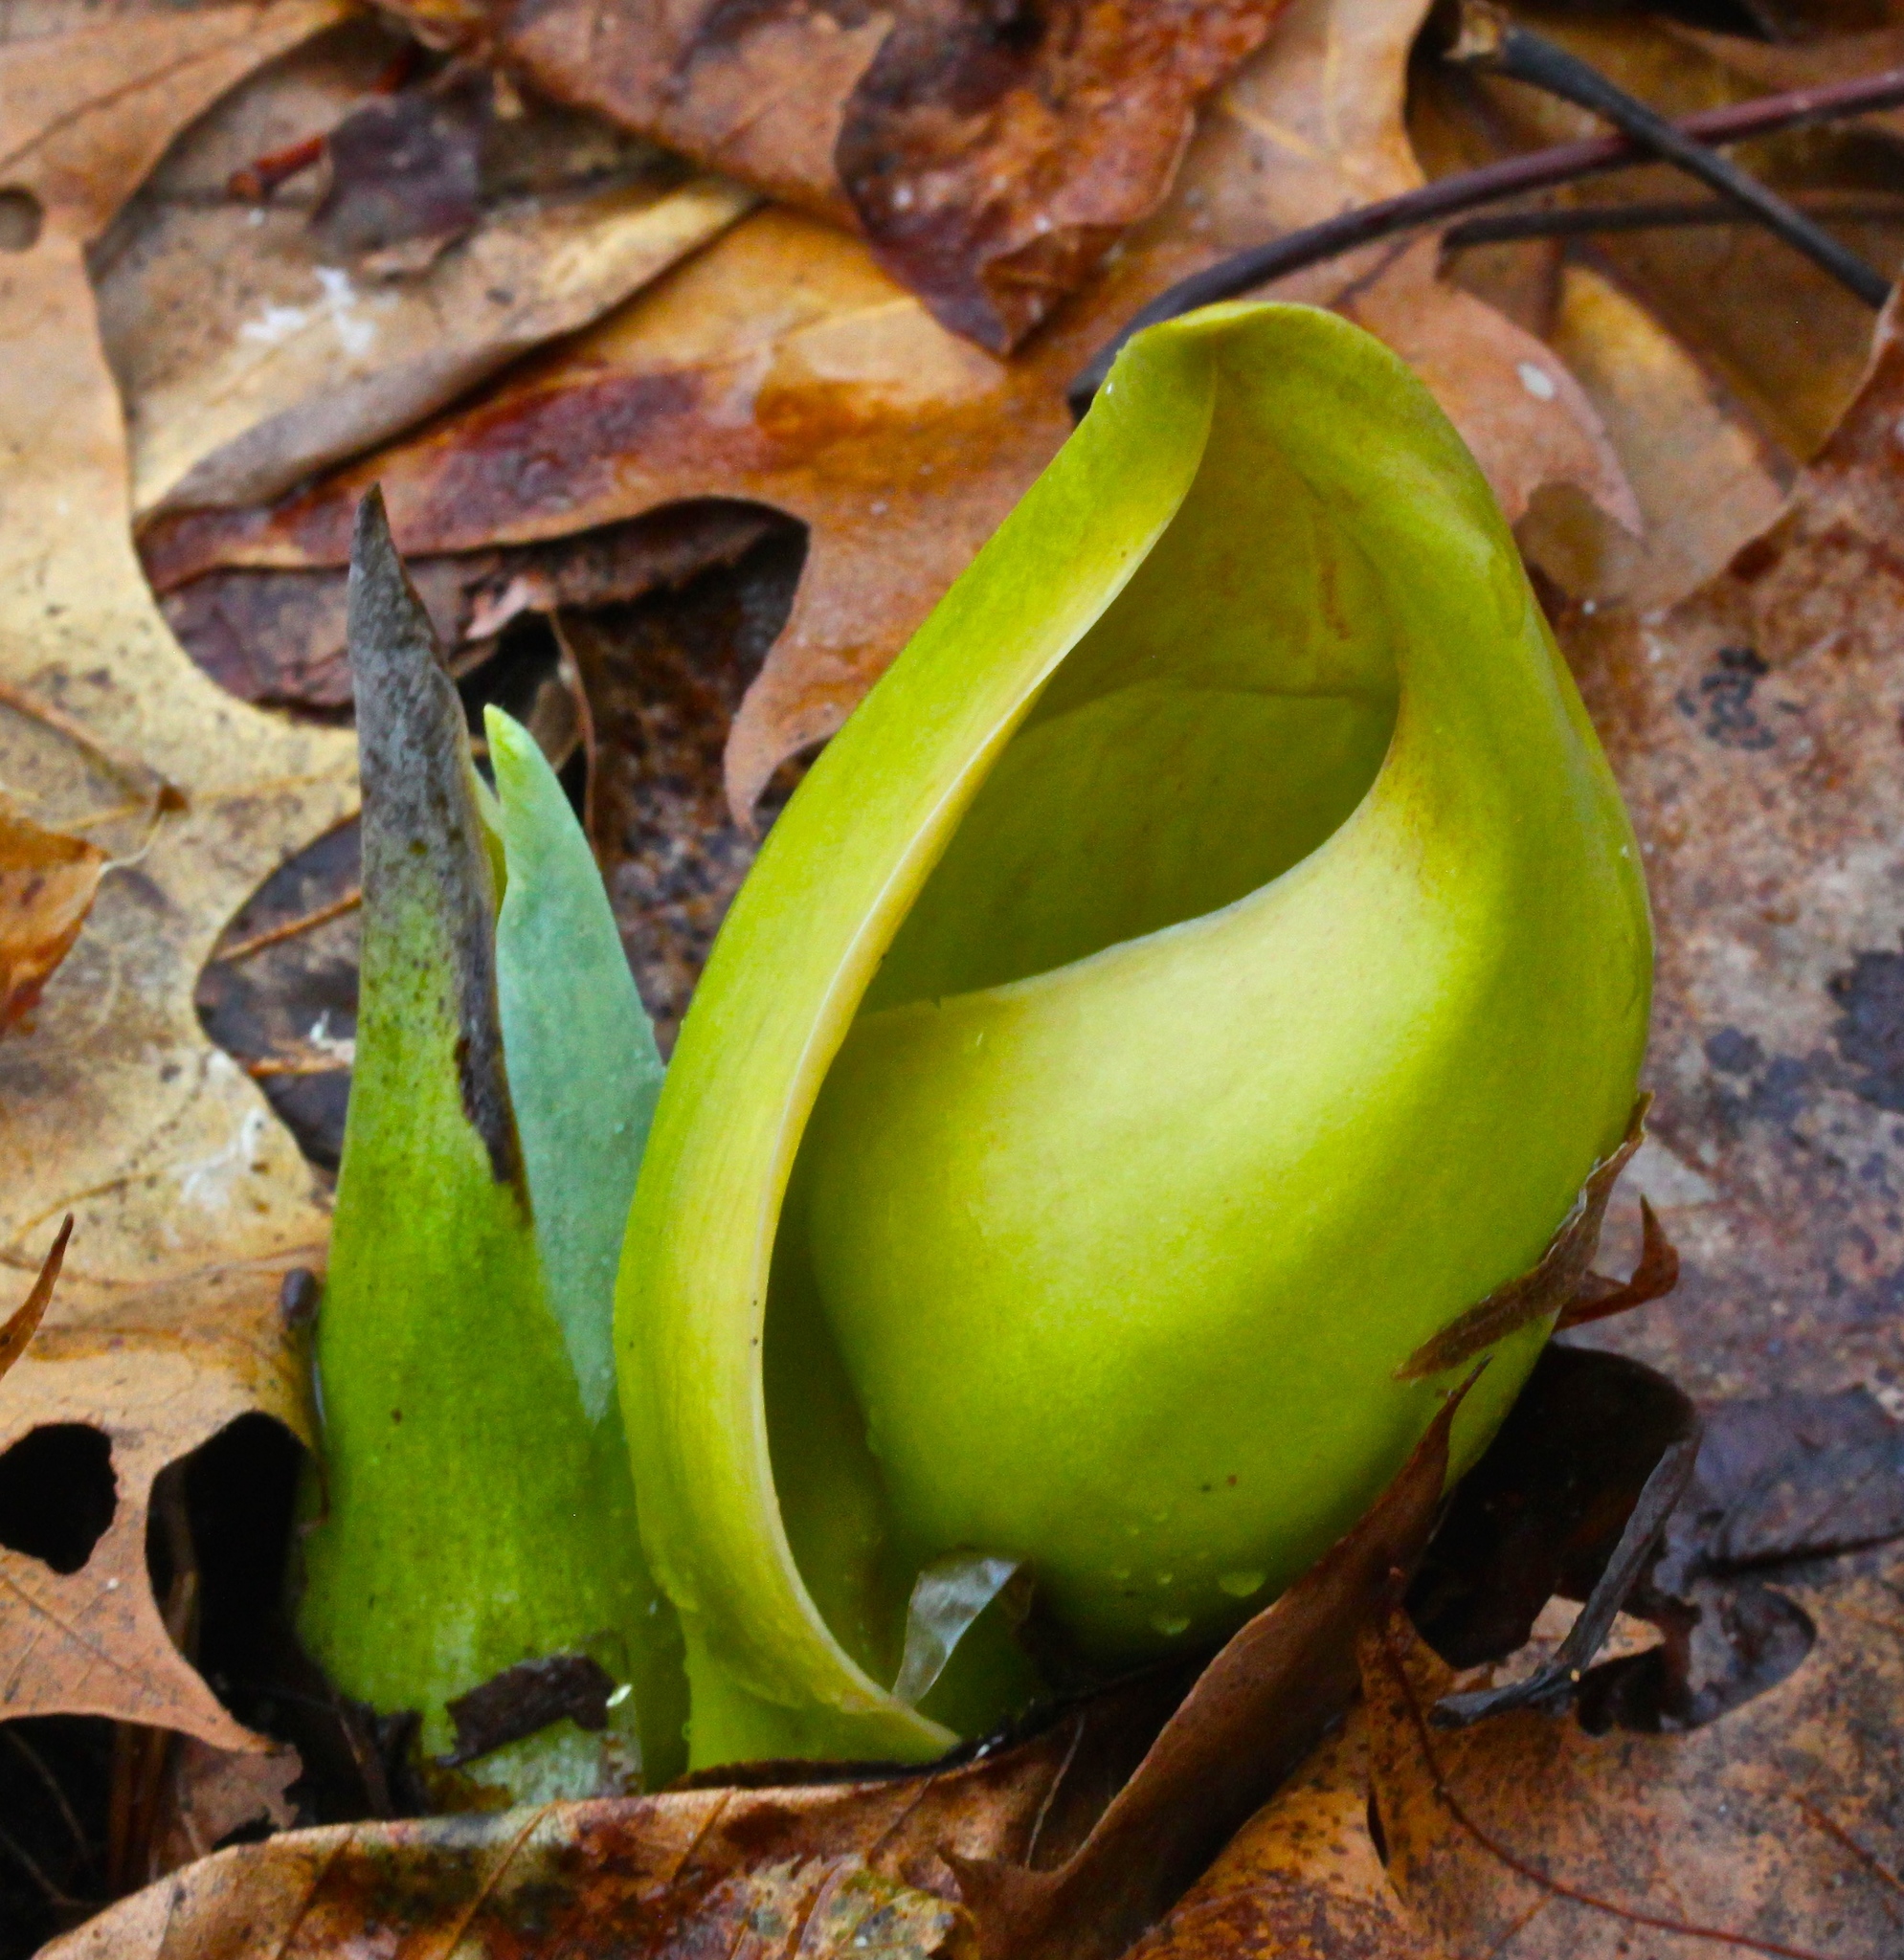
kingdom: Plantae
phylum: Tracheophyta
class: Liliopsida
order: Alismatales
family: Araceae
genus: Symplocarpus
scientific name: Symplocarpus foetidus
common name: Eastern skunk cabbage
